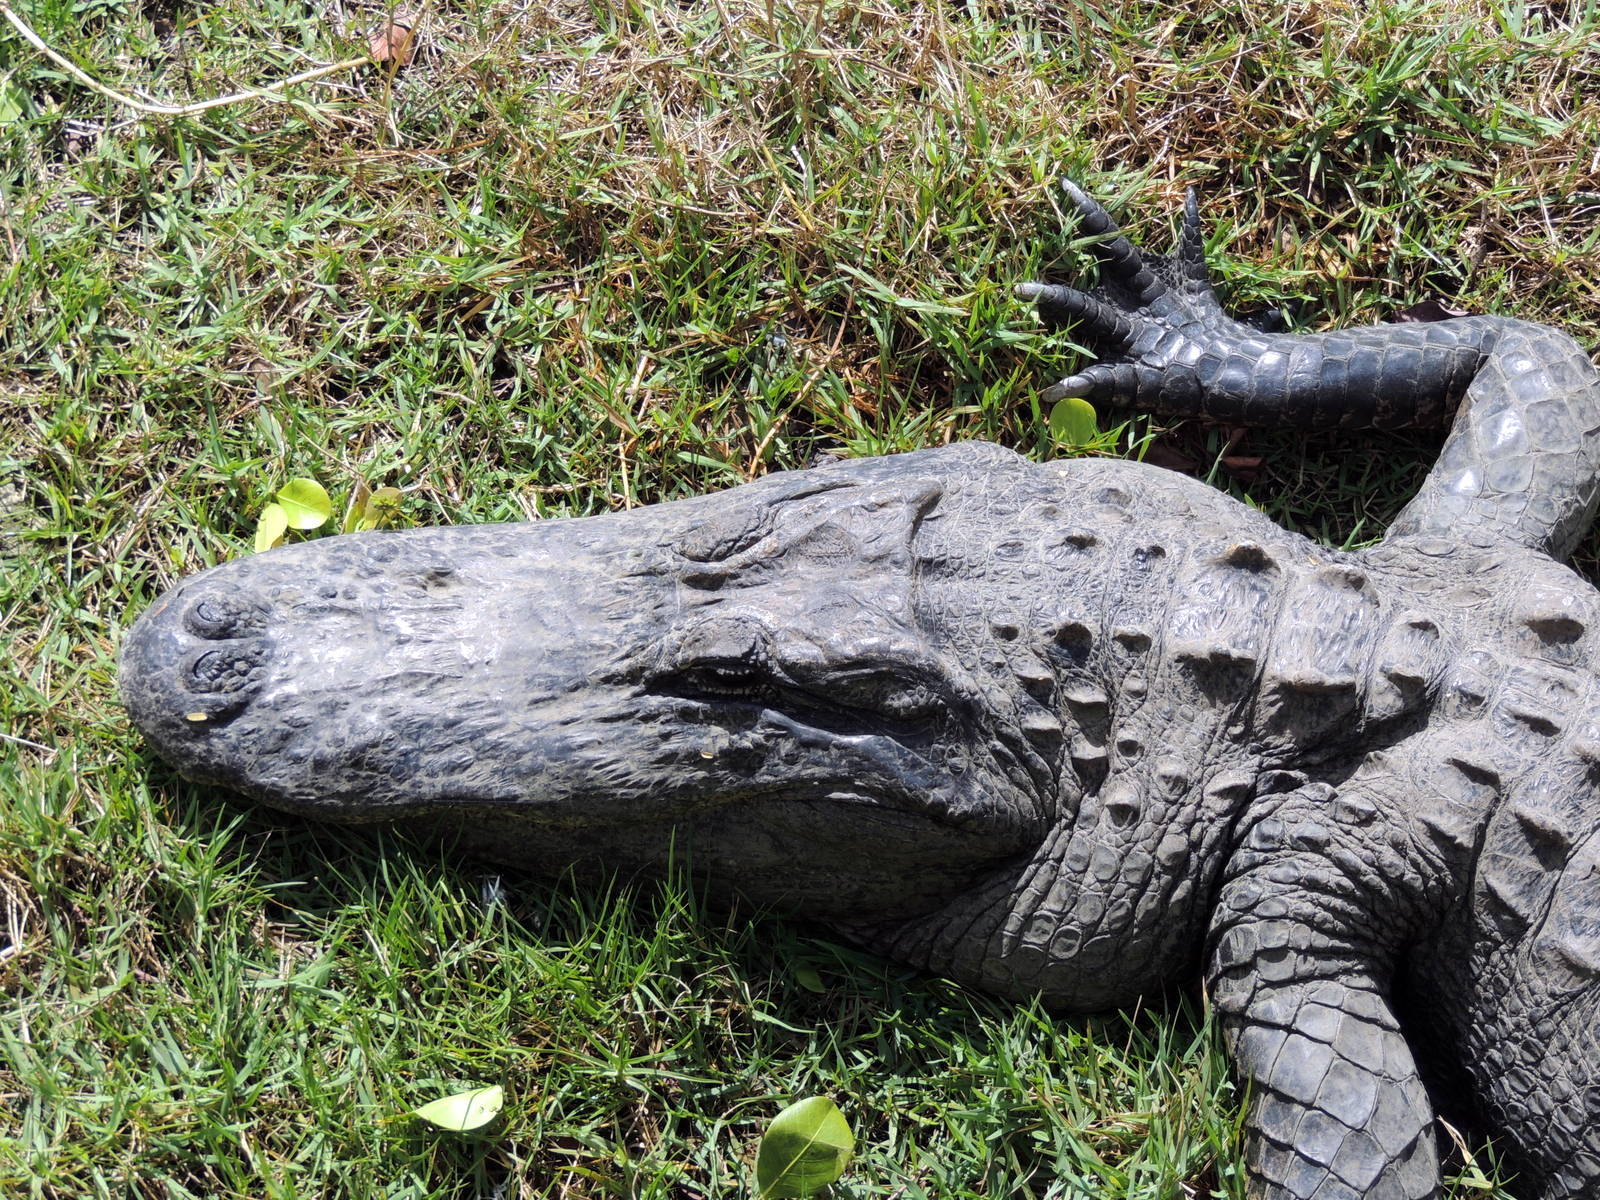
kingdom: Animalia
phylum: Chordata
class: Crocodylia
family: Alligatoridae
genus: Alligator
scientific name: Alligator mississippiensis
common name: American alligator
